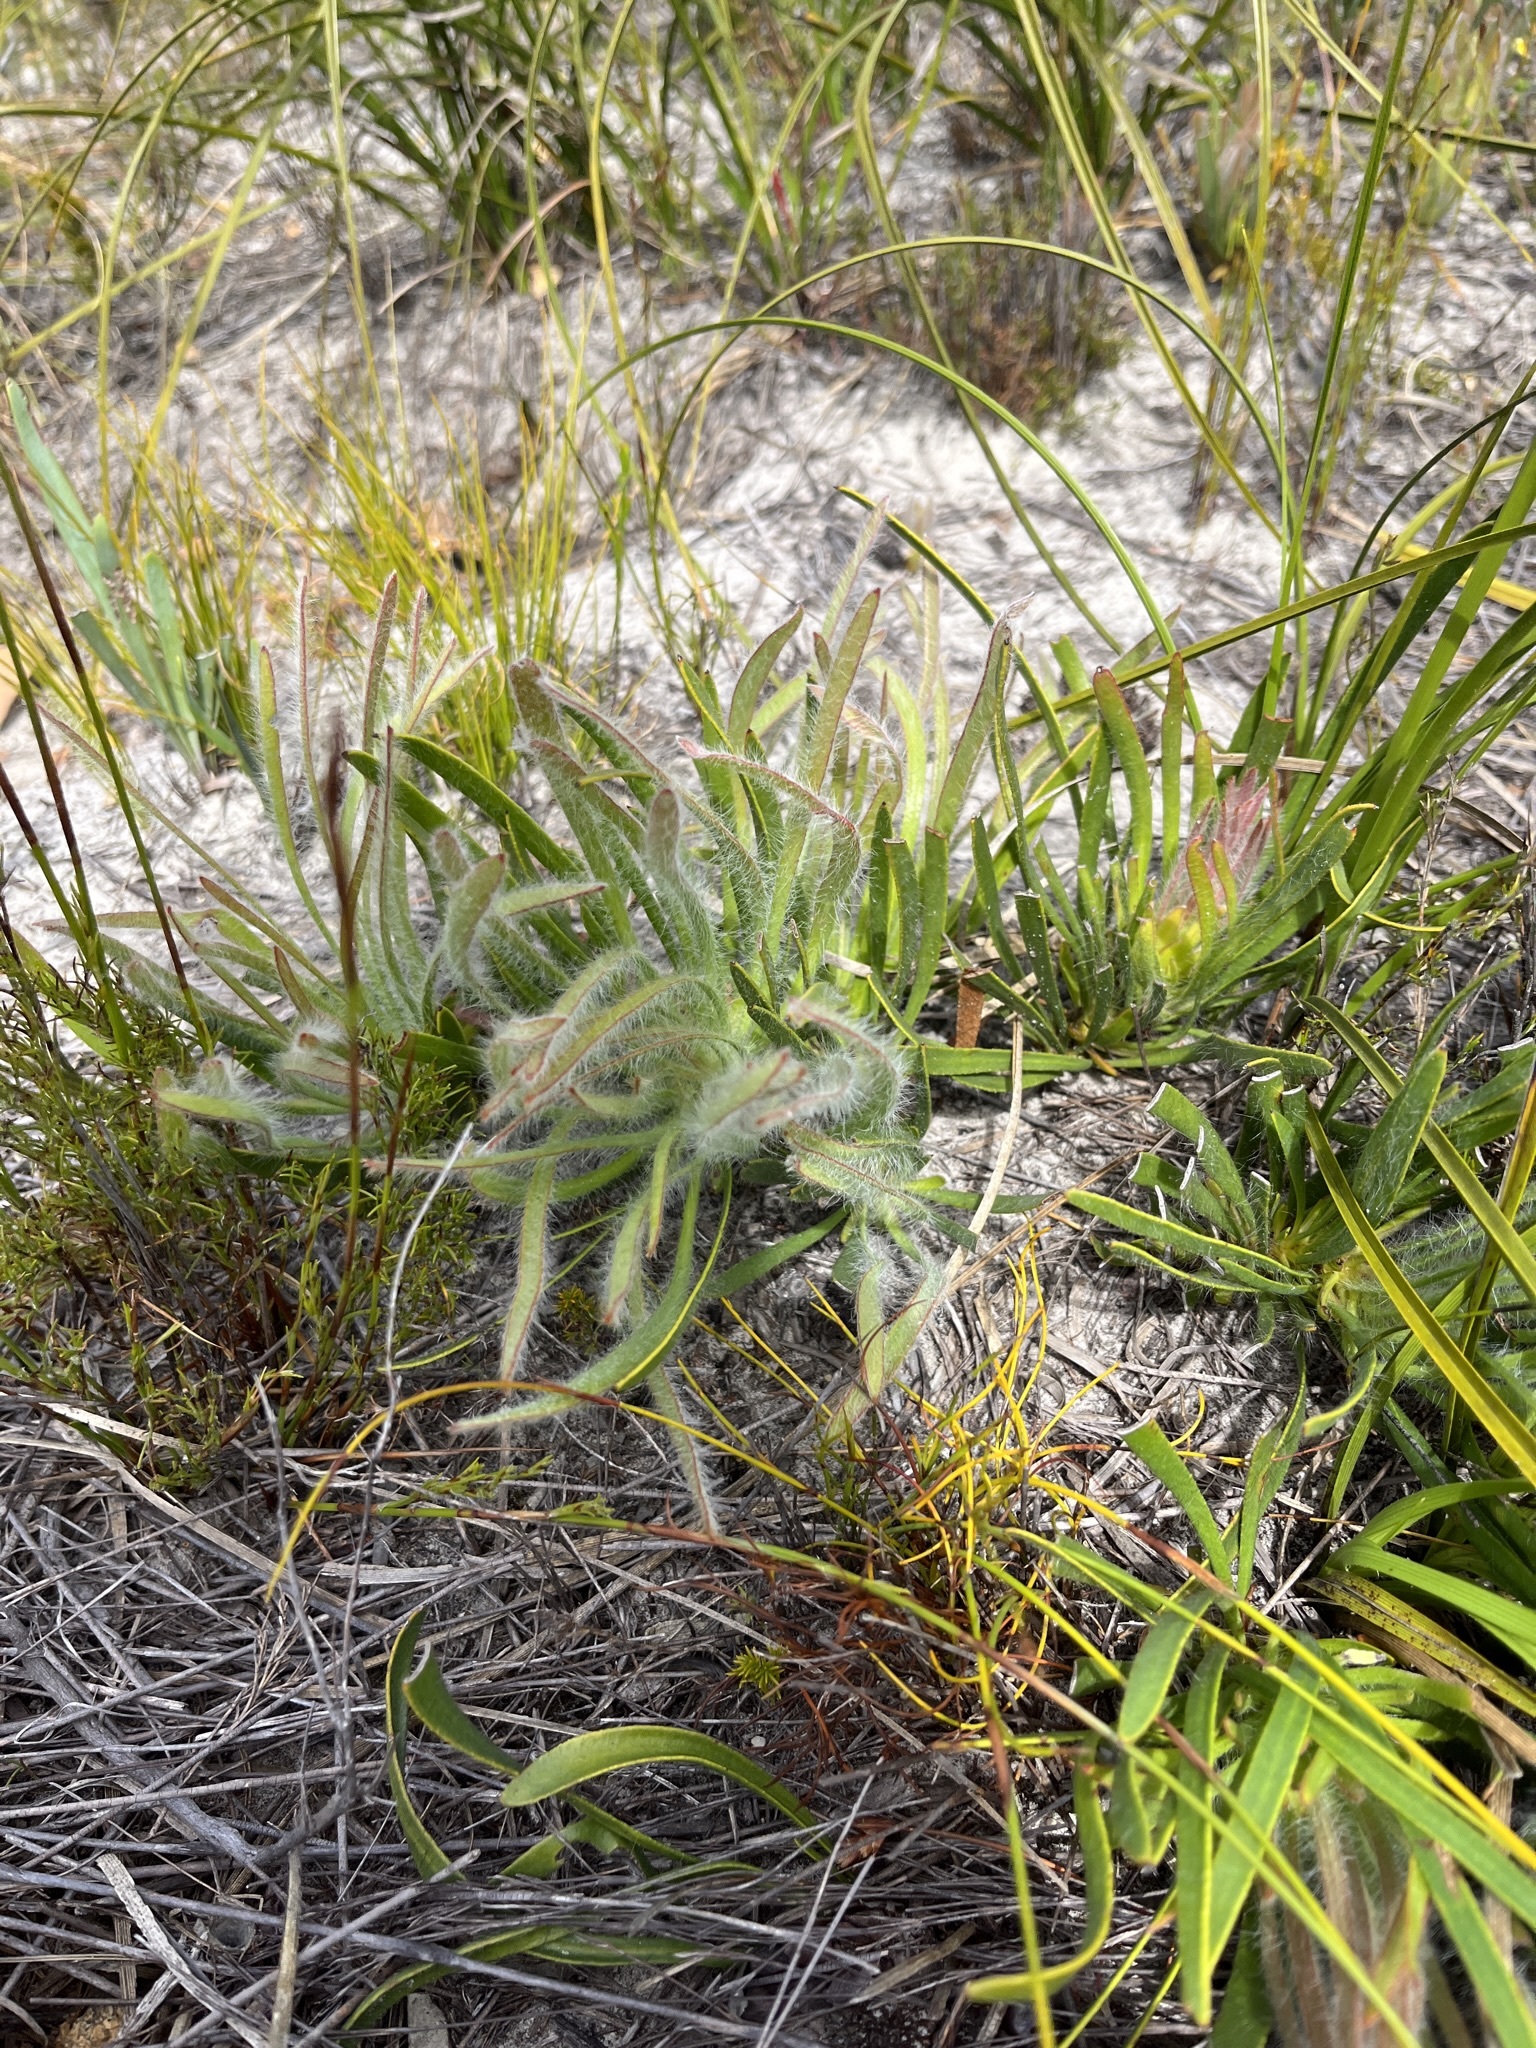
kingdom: Plantae
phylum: Tracheophyta
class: Magnoliopsida
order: Proteales
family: Proteaceae
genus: Protea
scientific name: Protea aspera
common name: Rough-leaf sugarbush
